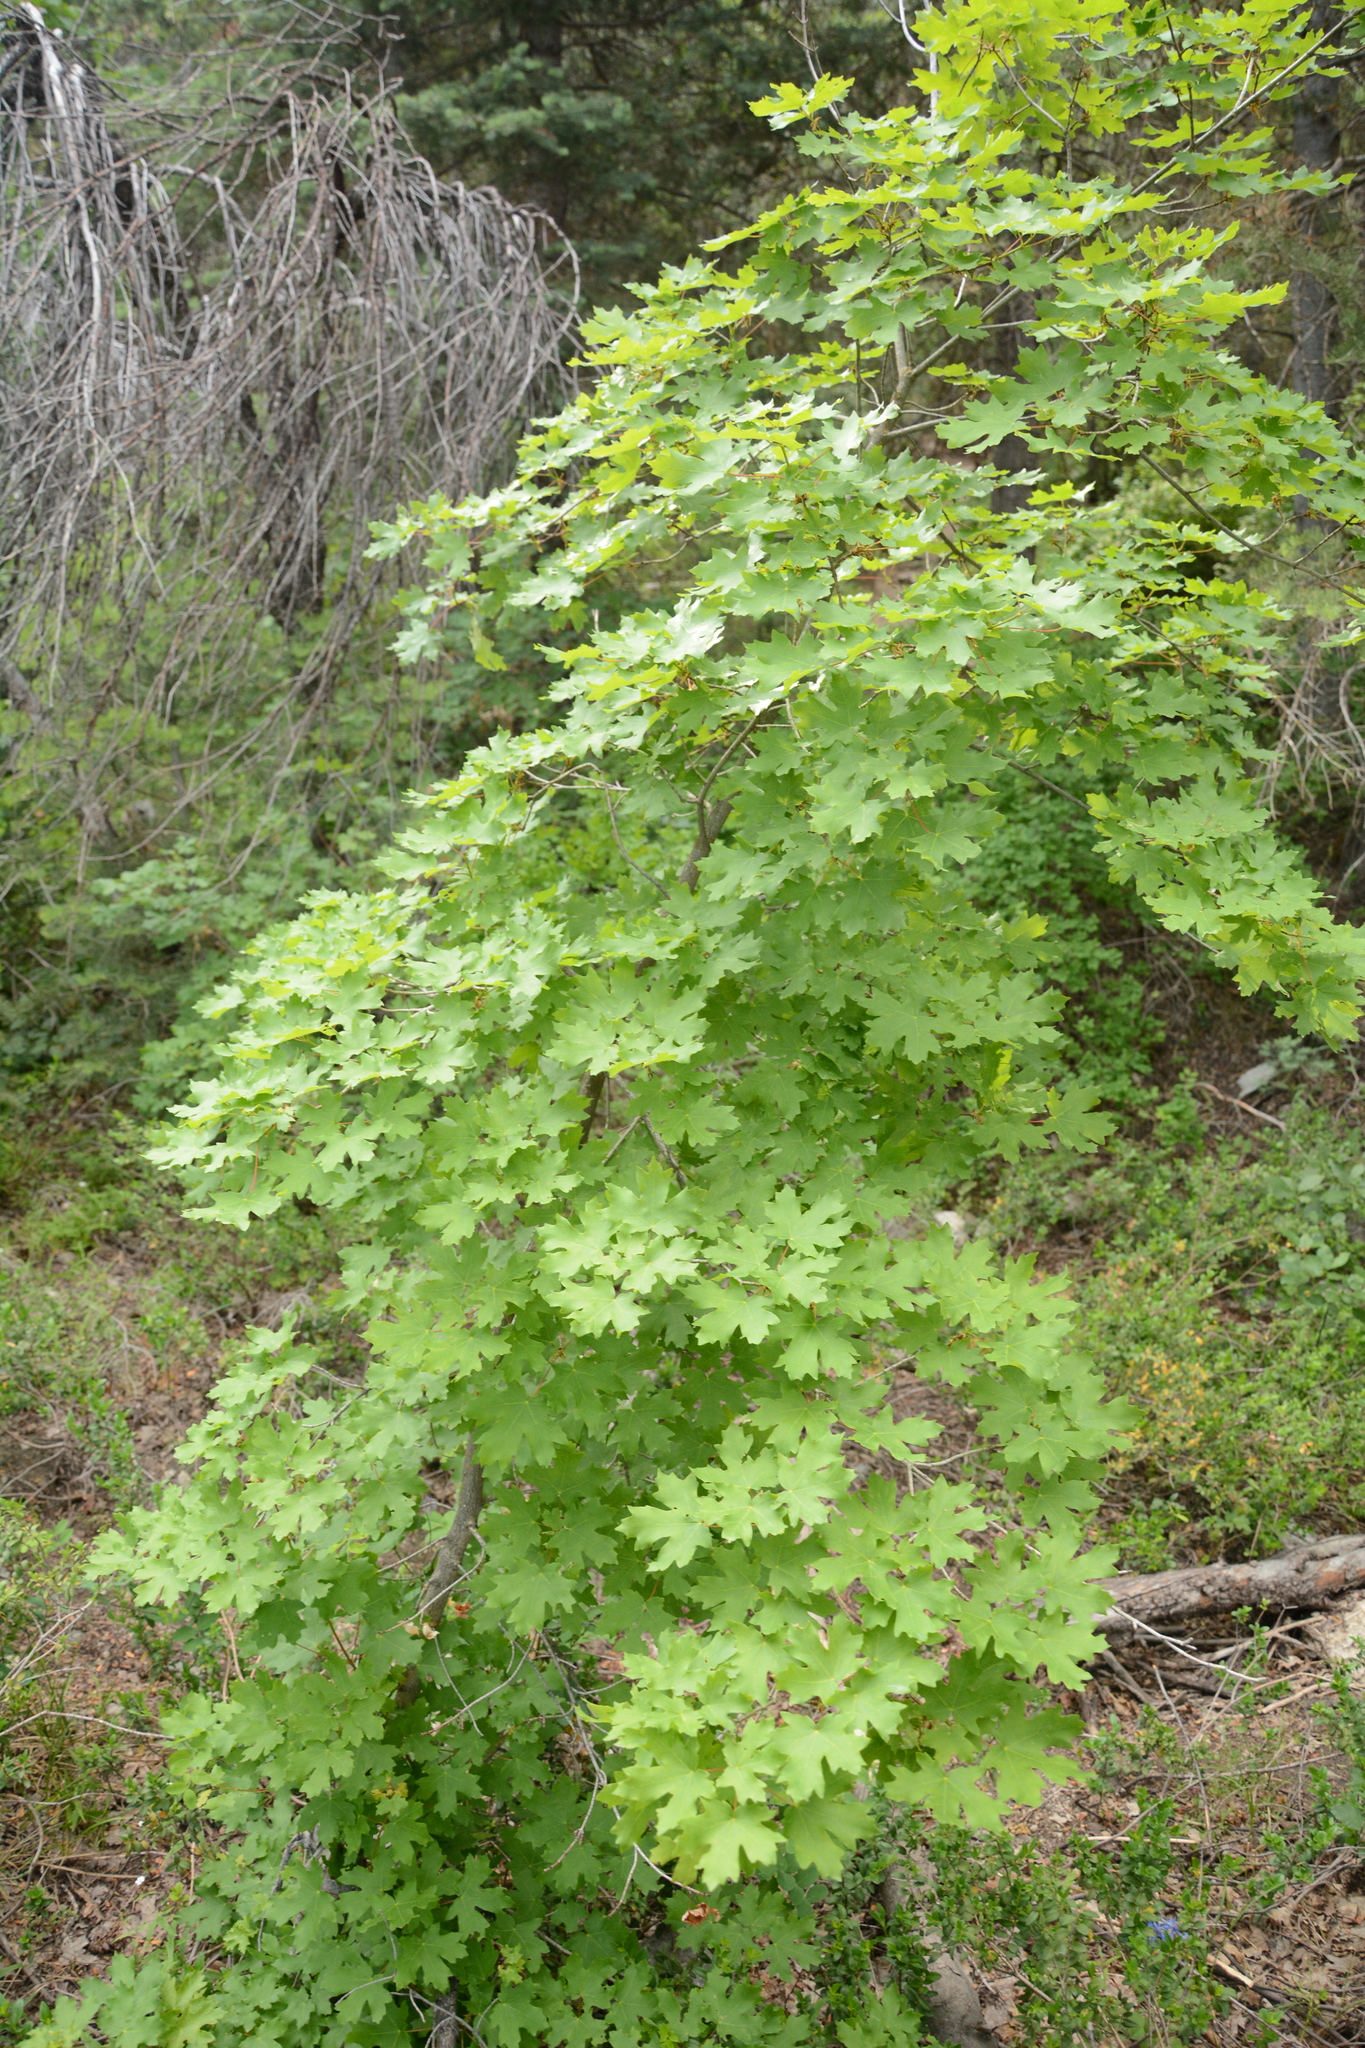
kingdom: Plantae
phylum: Tracheophyta
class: Magnoliopsida
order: Sapindales
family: Sapindaceae
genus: Acer
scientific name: Acer grandidentatum
